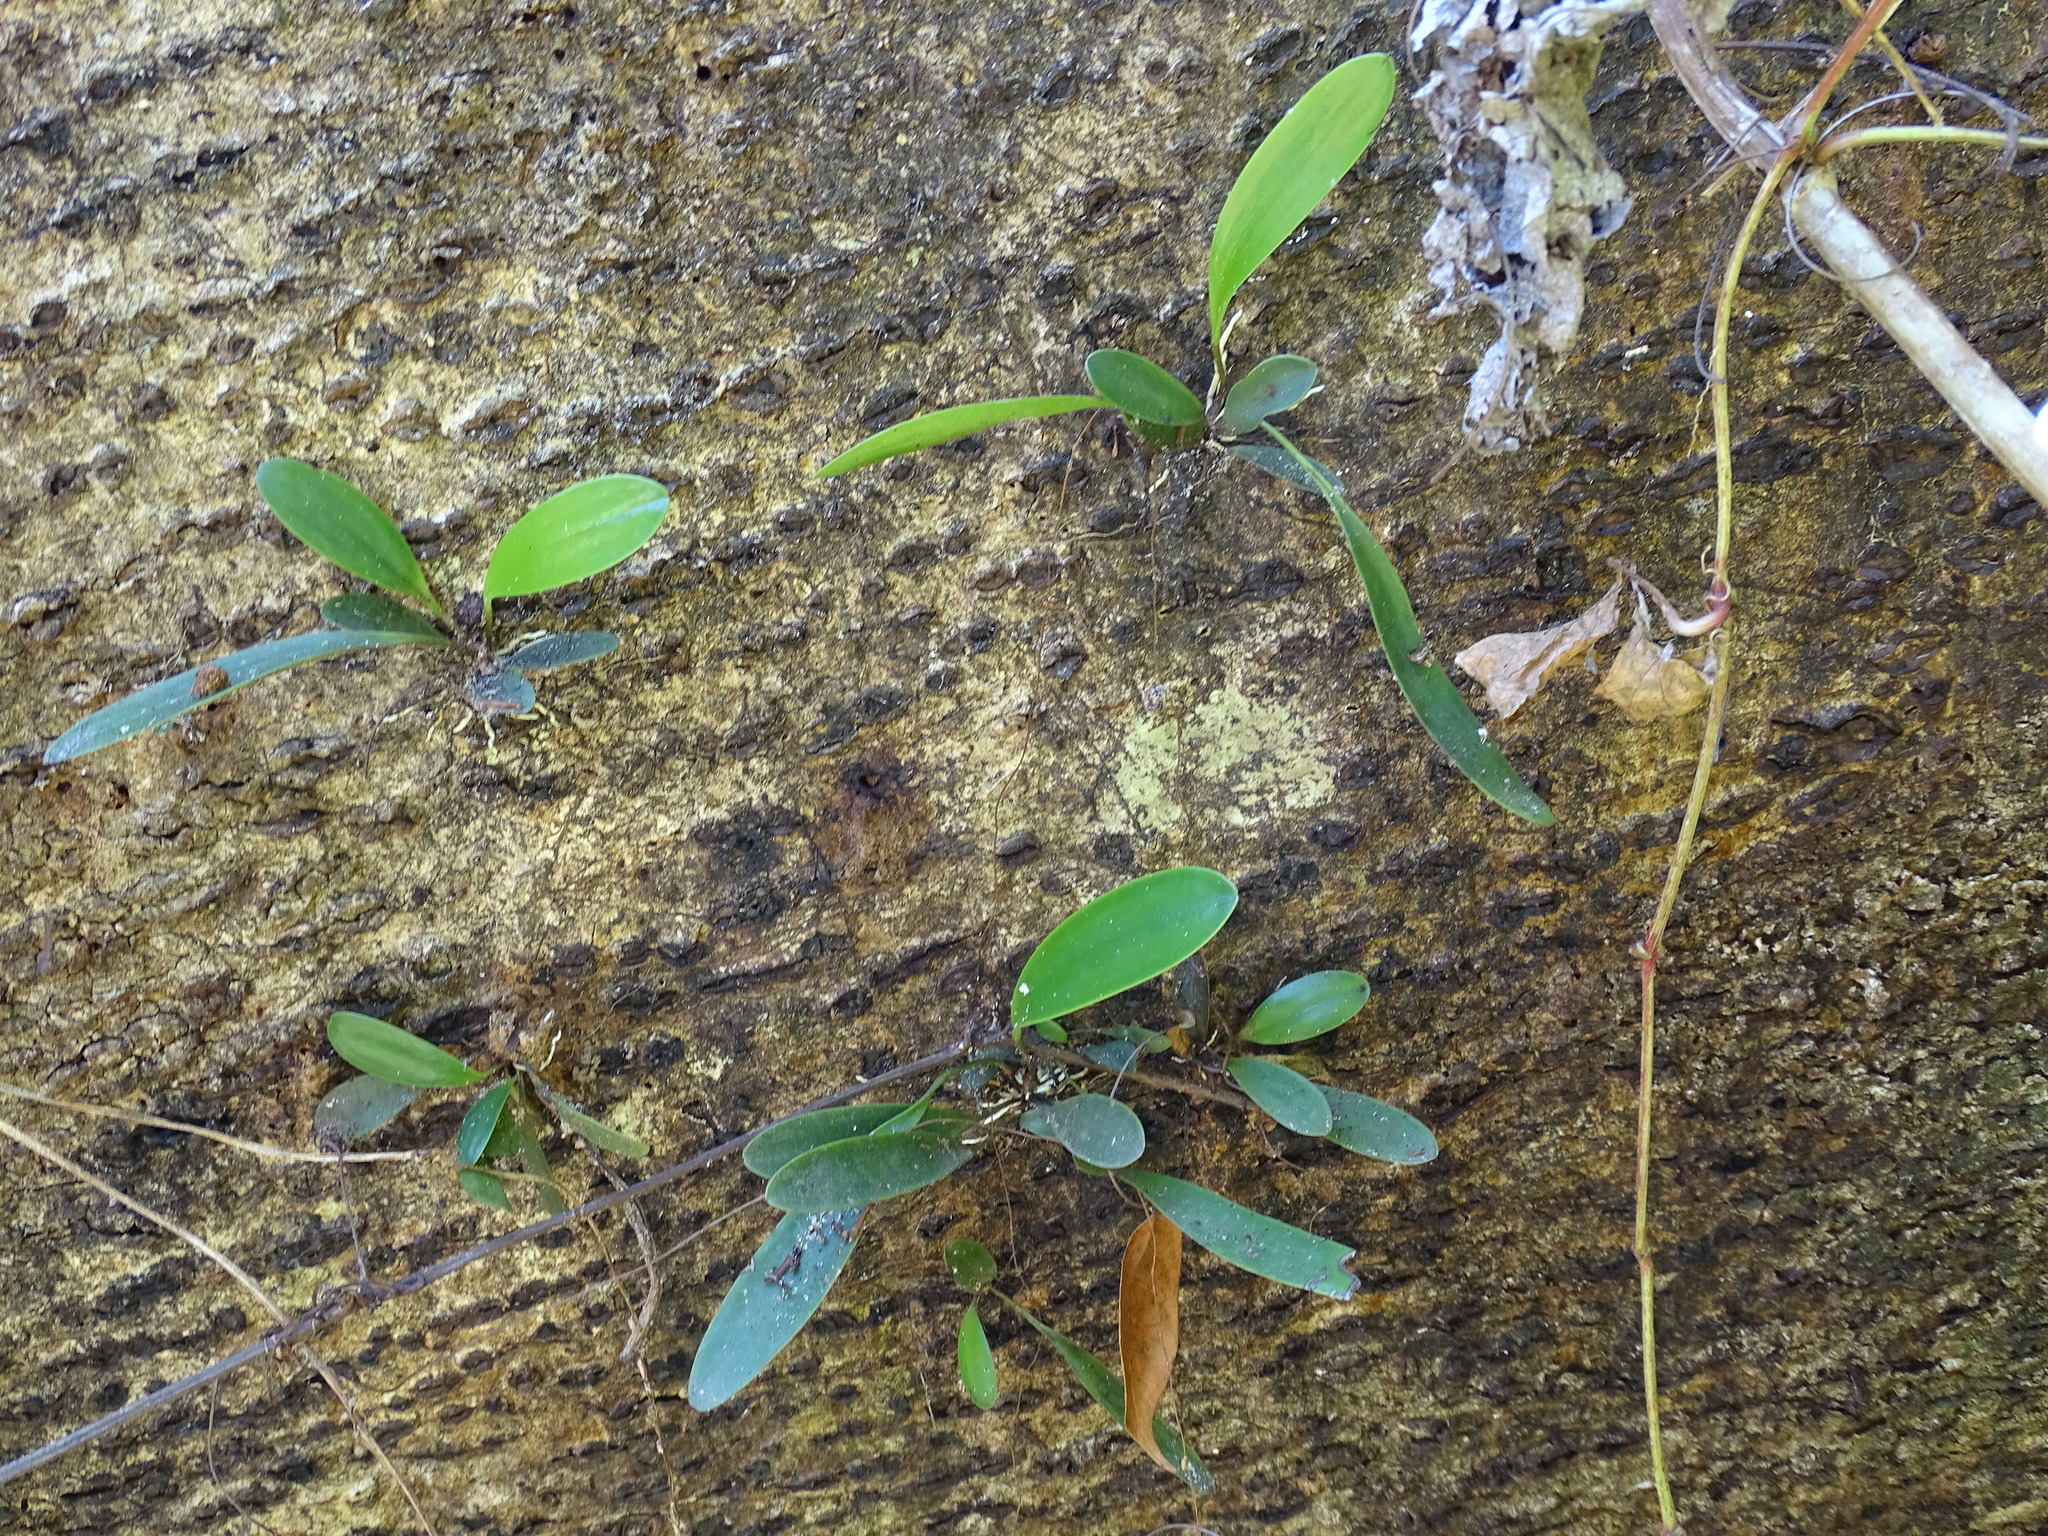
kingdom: Plantae
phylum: Tracheophyta
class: Liliopsida
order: Asparagales
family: Orchidaceae
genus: Pleurothallis
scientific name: Pleurothallis quadrifida
